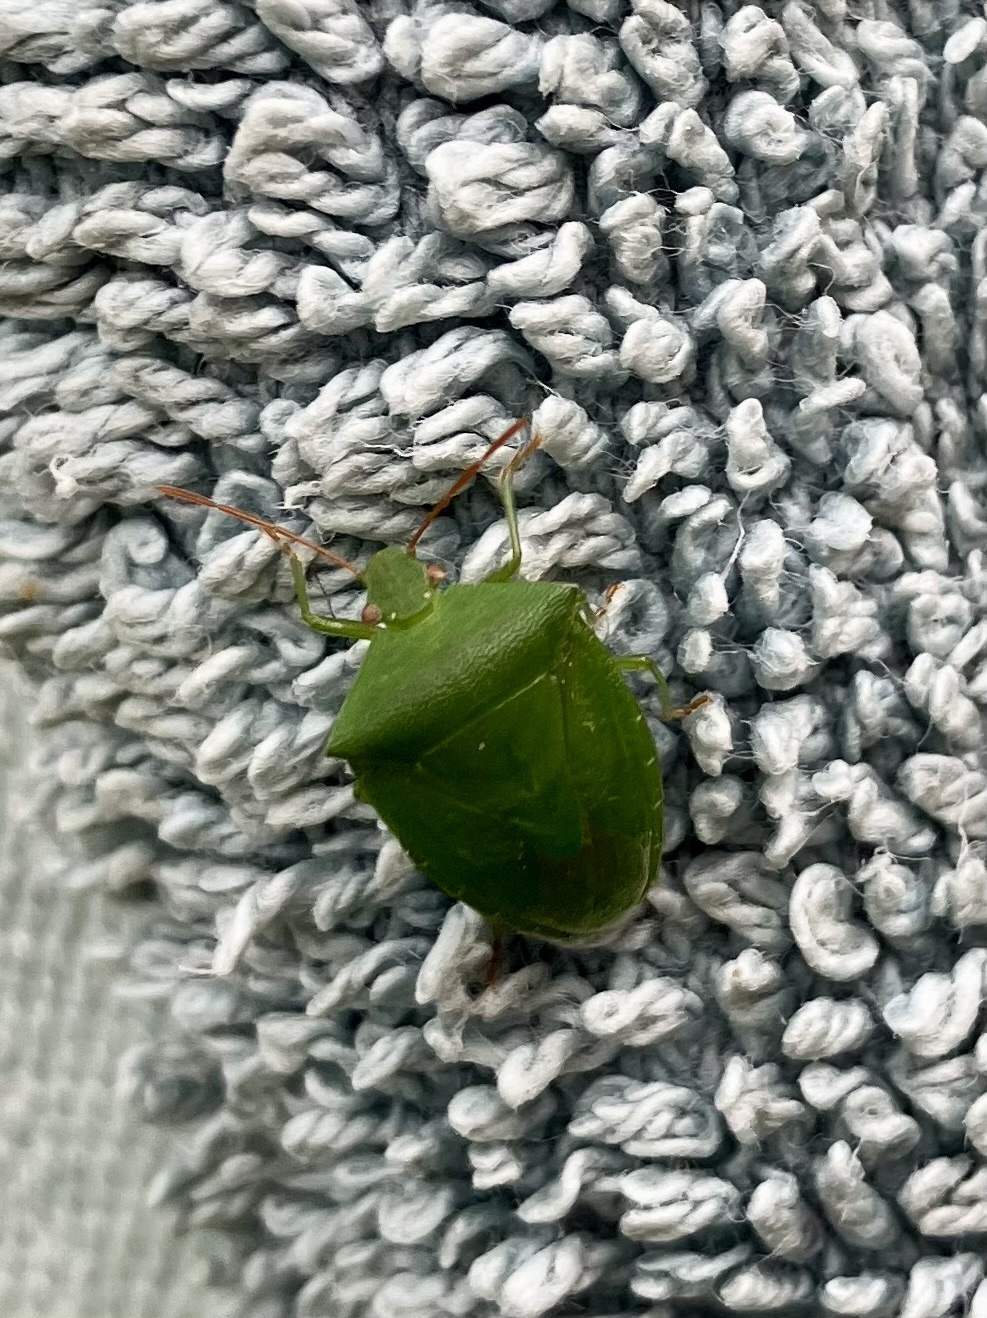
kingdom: Animalia
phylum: Arthropoda
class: Insecta
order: Hemiptera
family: Pentatomidae
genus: Cuspicona
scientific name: Cuspicona simplex
